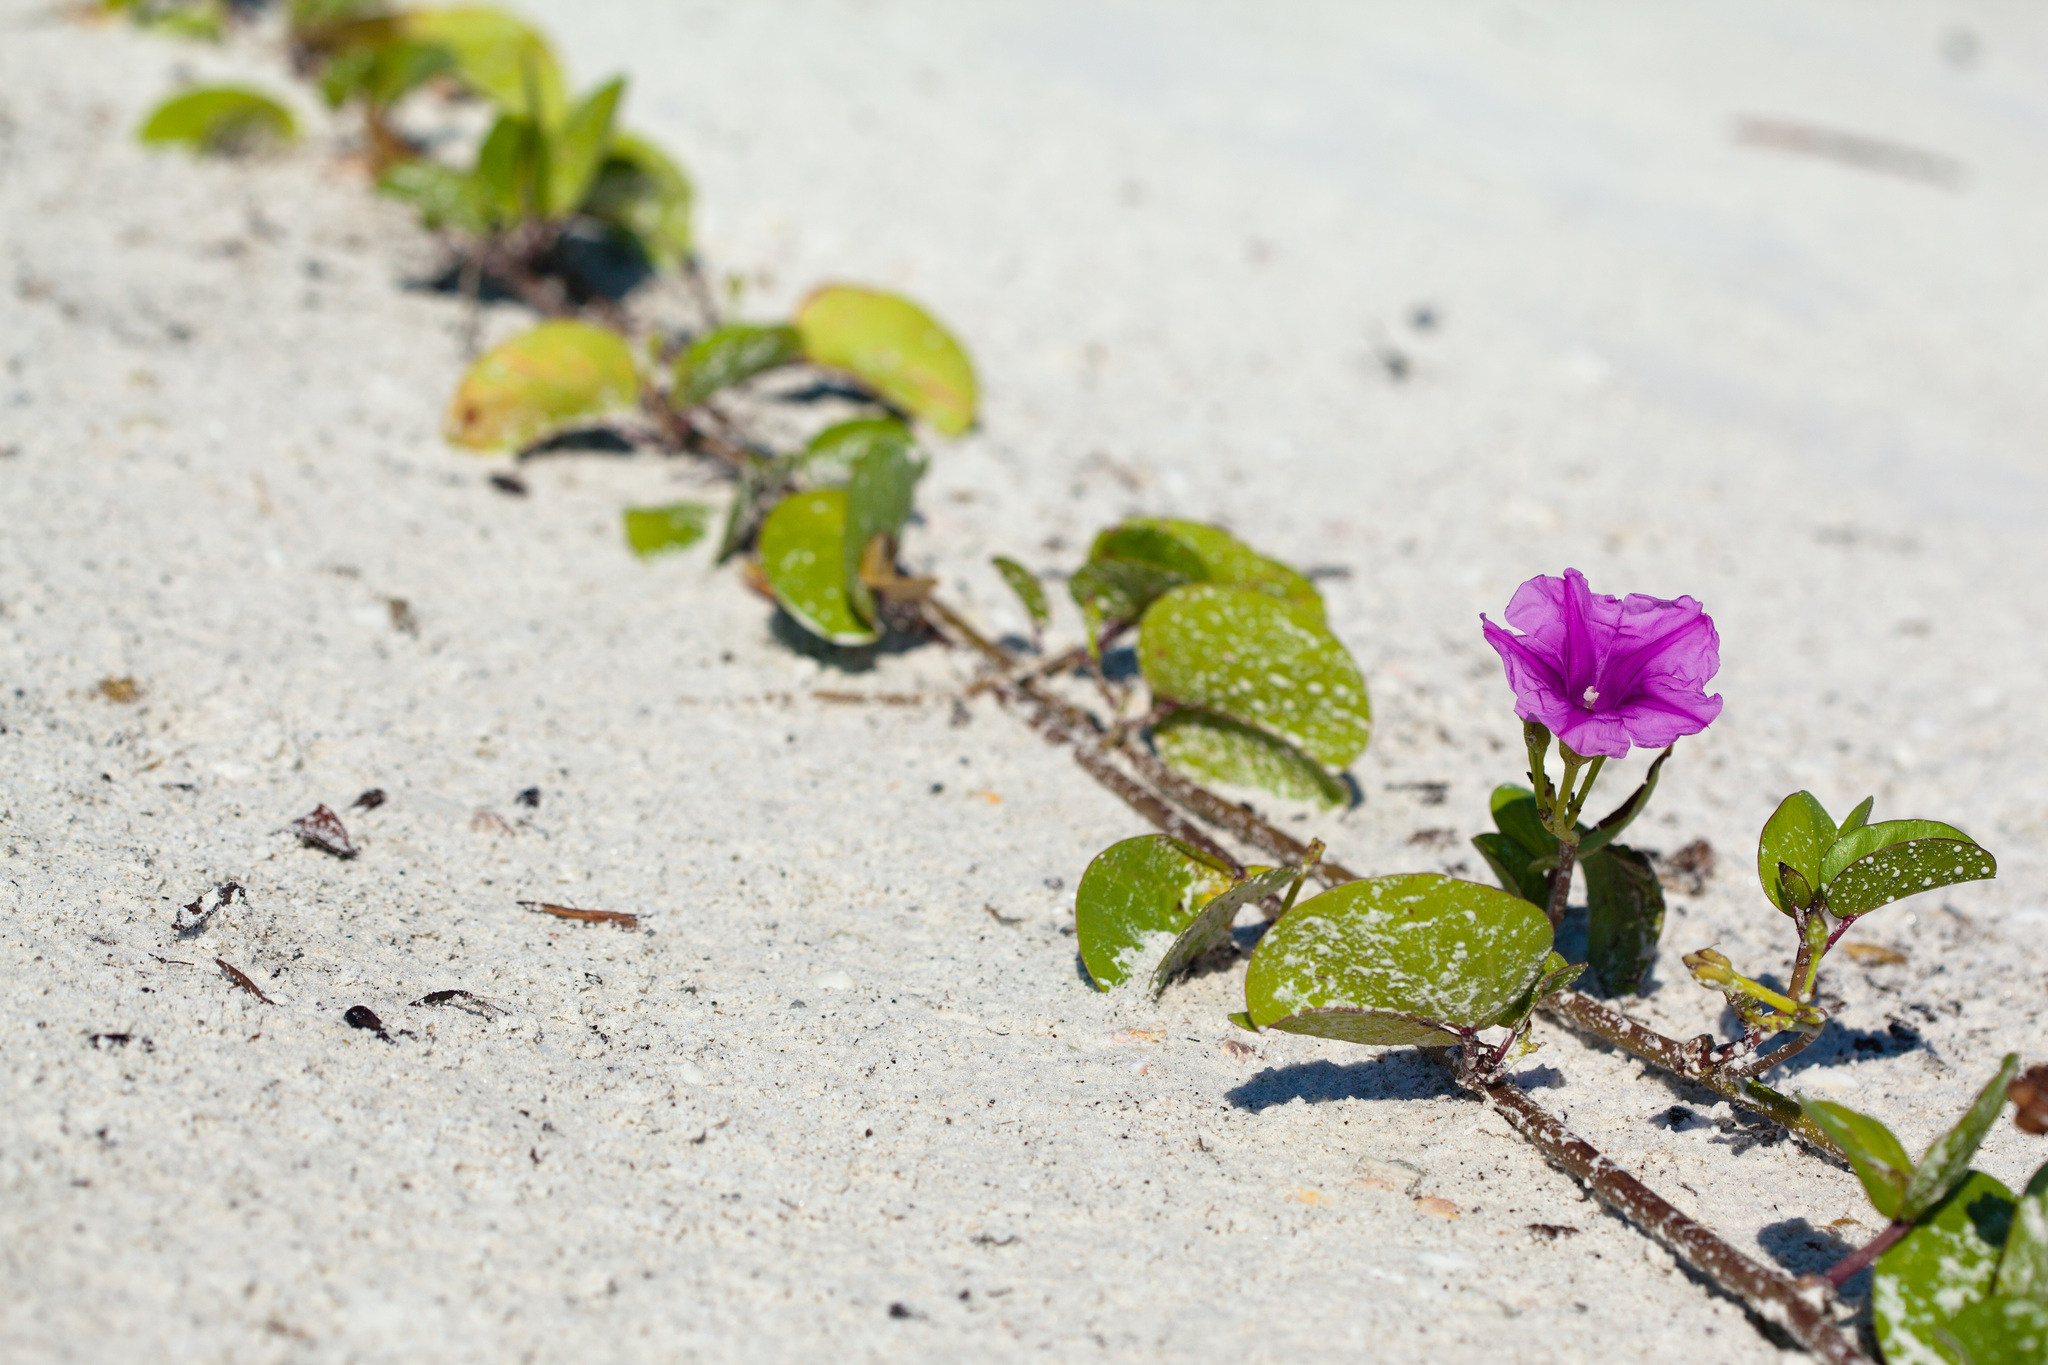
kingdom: Plantae
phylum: Tracheophyta
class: Magnoliopsida
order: Solanales
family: Convolvulaceae
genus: Ipomoea
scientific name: Ipomoea pes-caprae
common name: Beach morning glory
